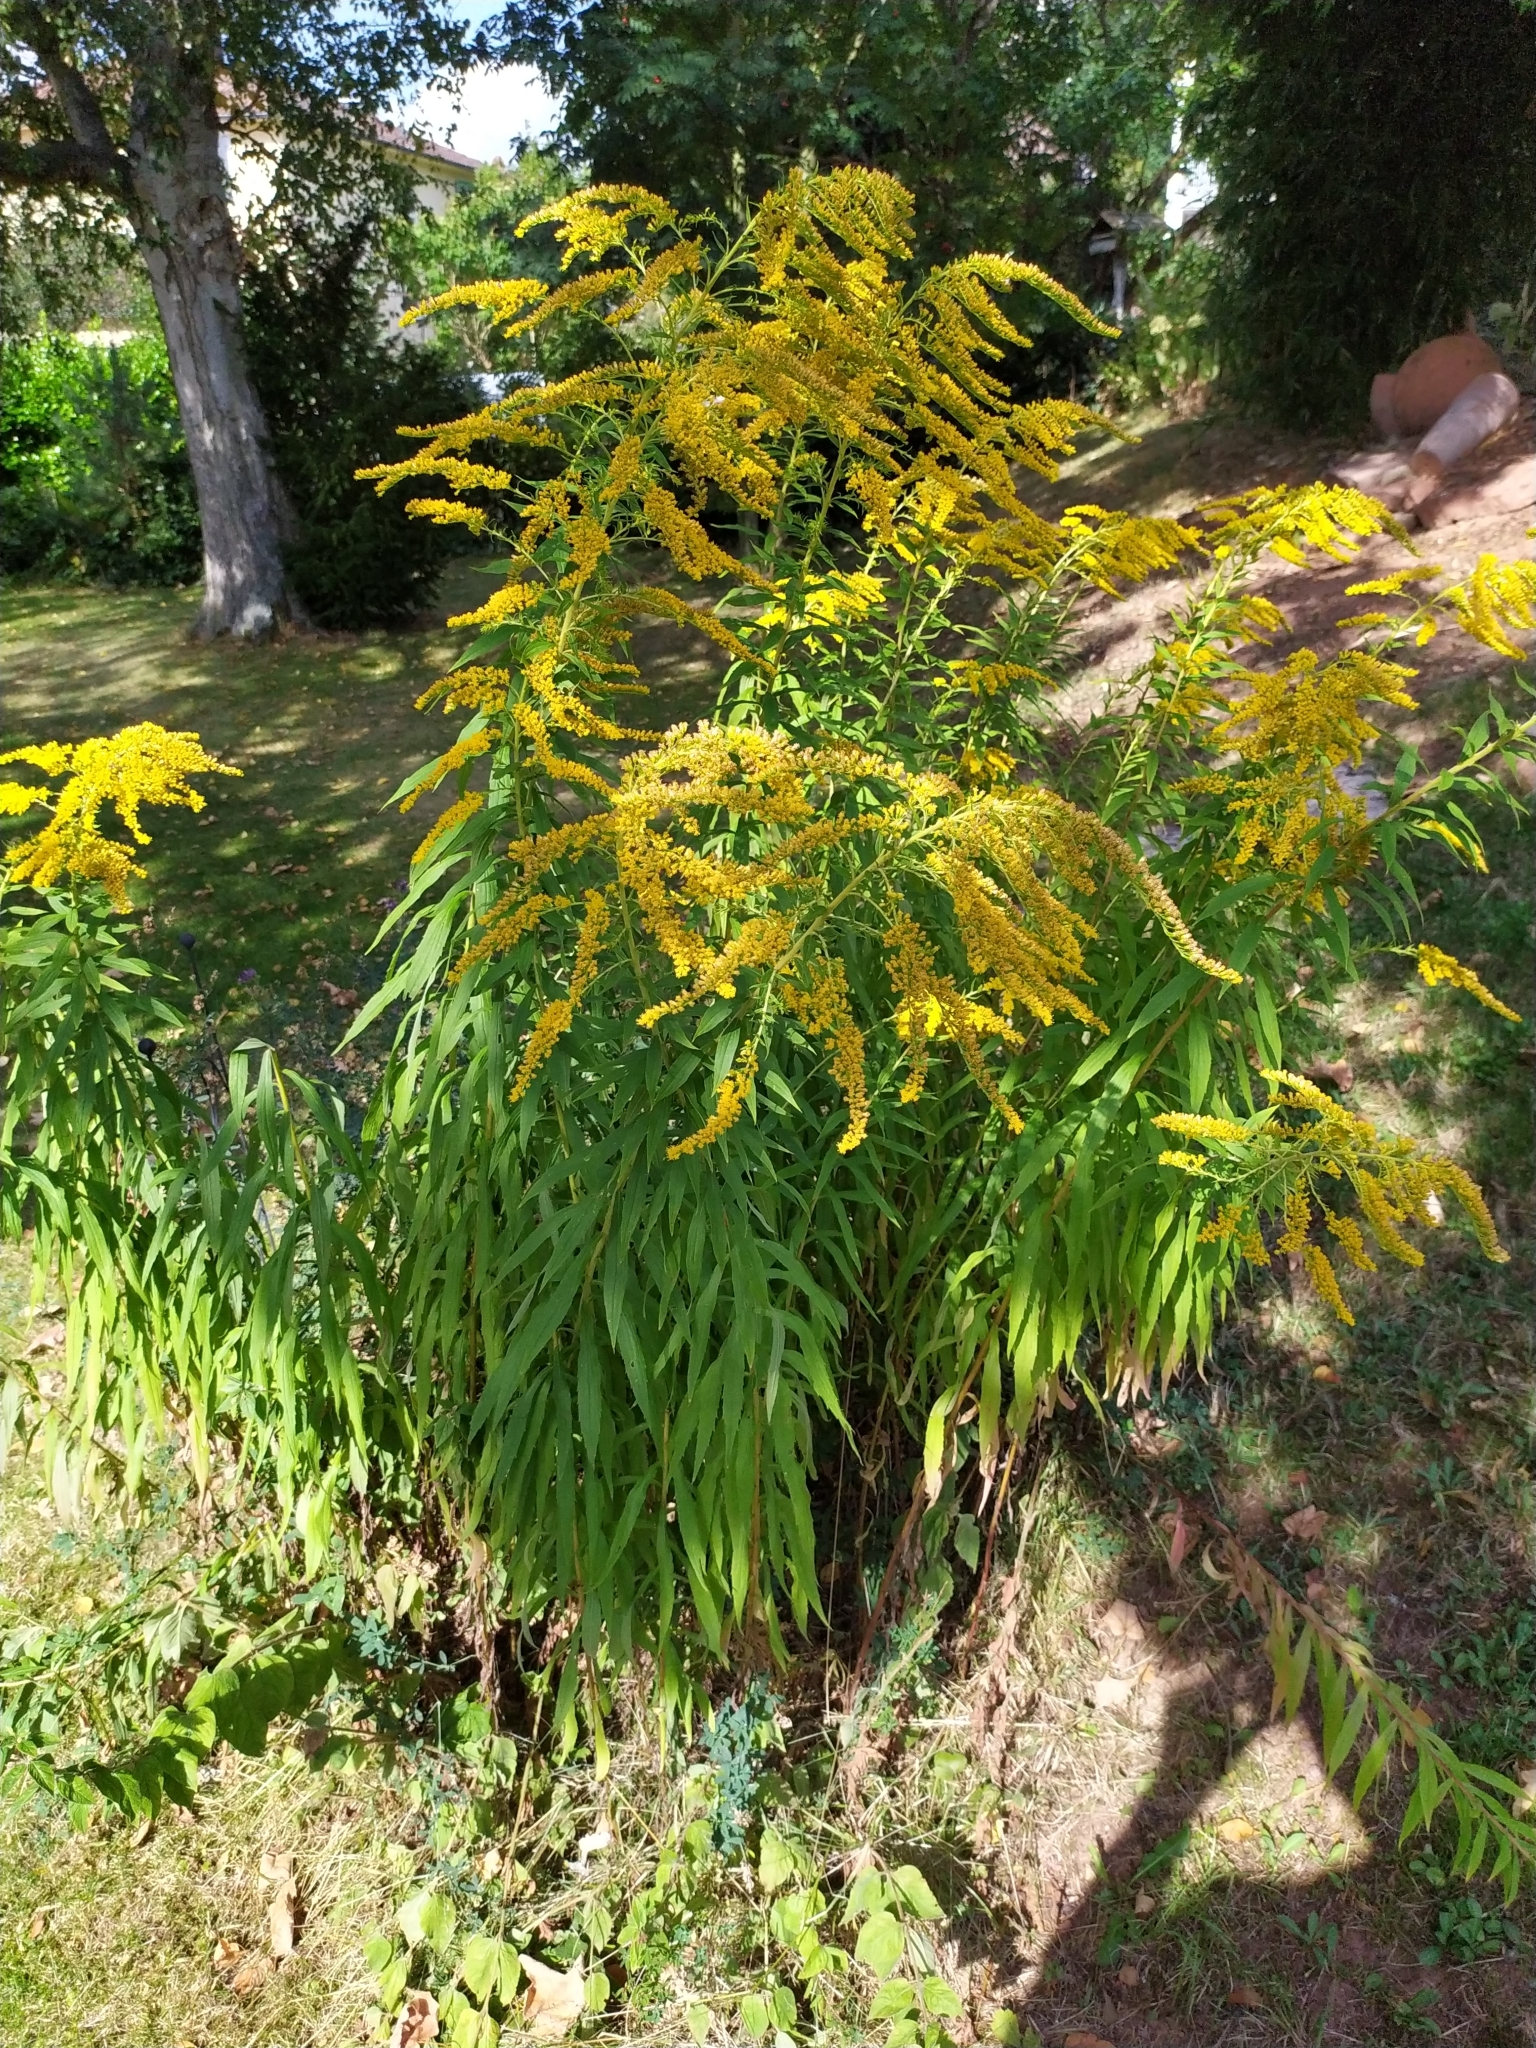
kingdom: Plantae
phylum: Tracheophyta
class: Magnoliopsida
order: Asterales
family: Asteraceae
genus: Solidago
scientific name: Solidago canadensis
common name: Canada goldenrod
